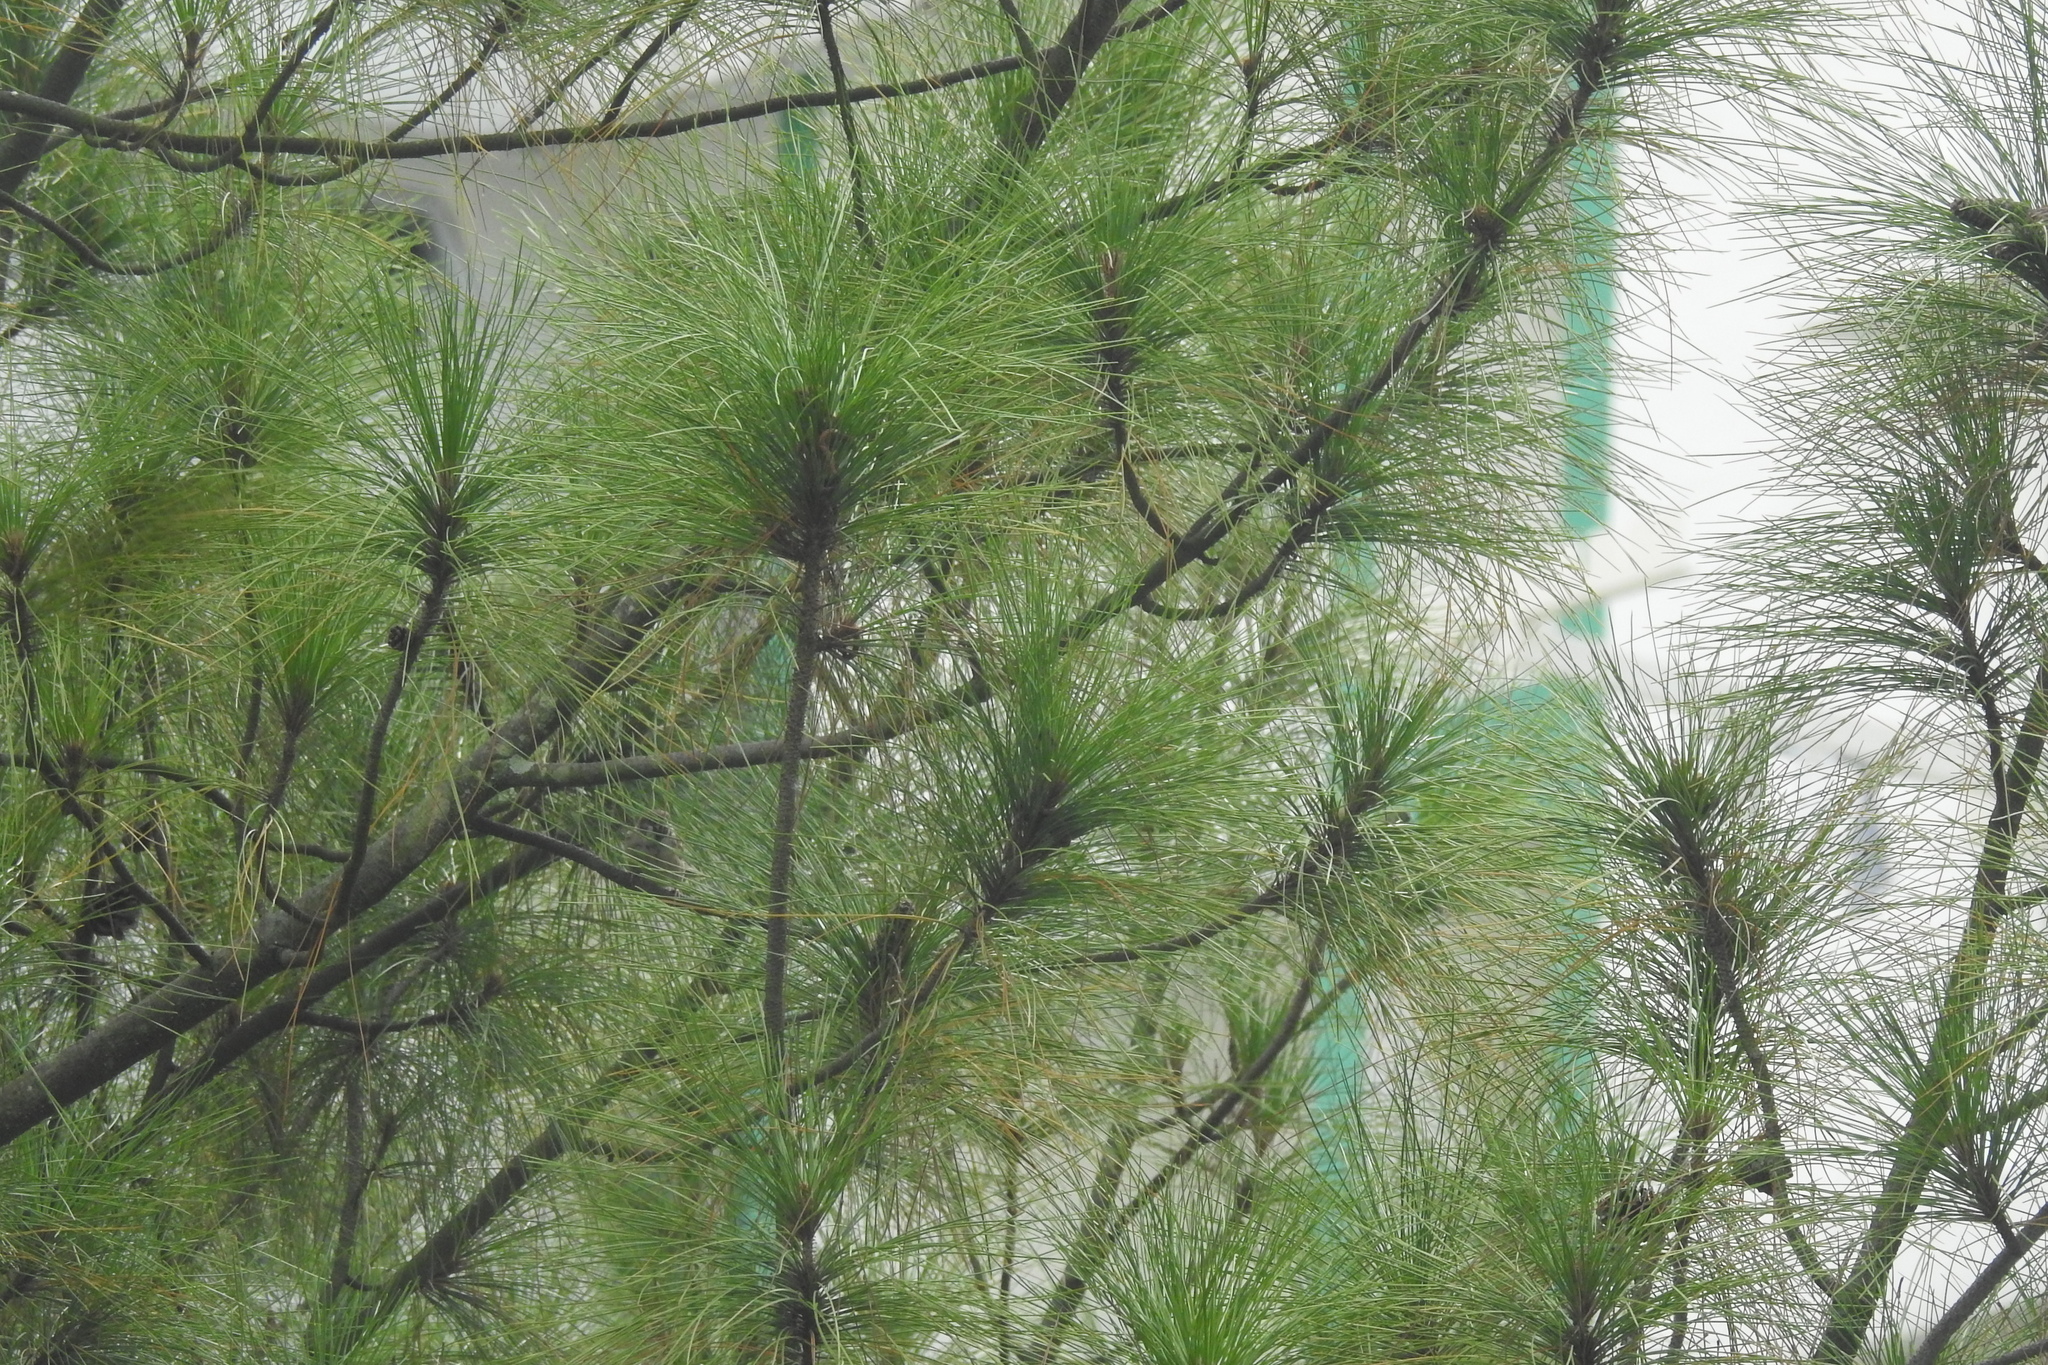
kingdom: Plantae
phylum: Tracheophyta
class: Pinopsida
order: Pinales
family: Pinaceae
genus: Pinus
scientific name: Pinus caribaea
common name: Caribbean pine
